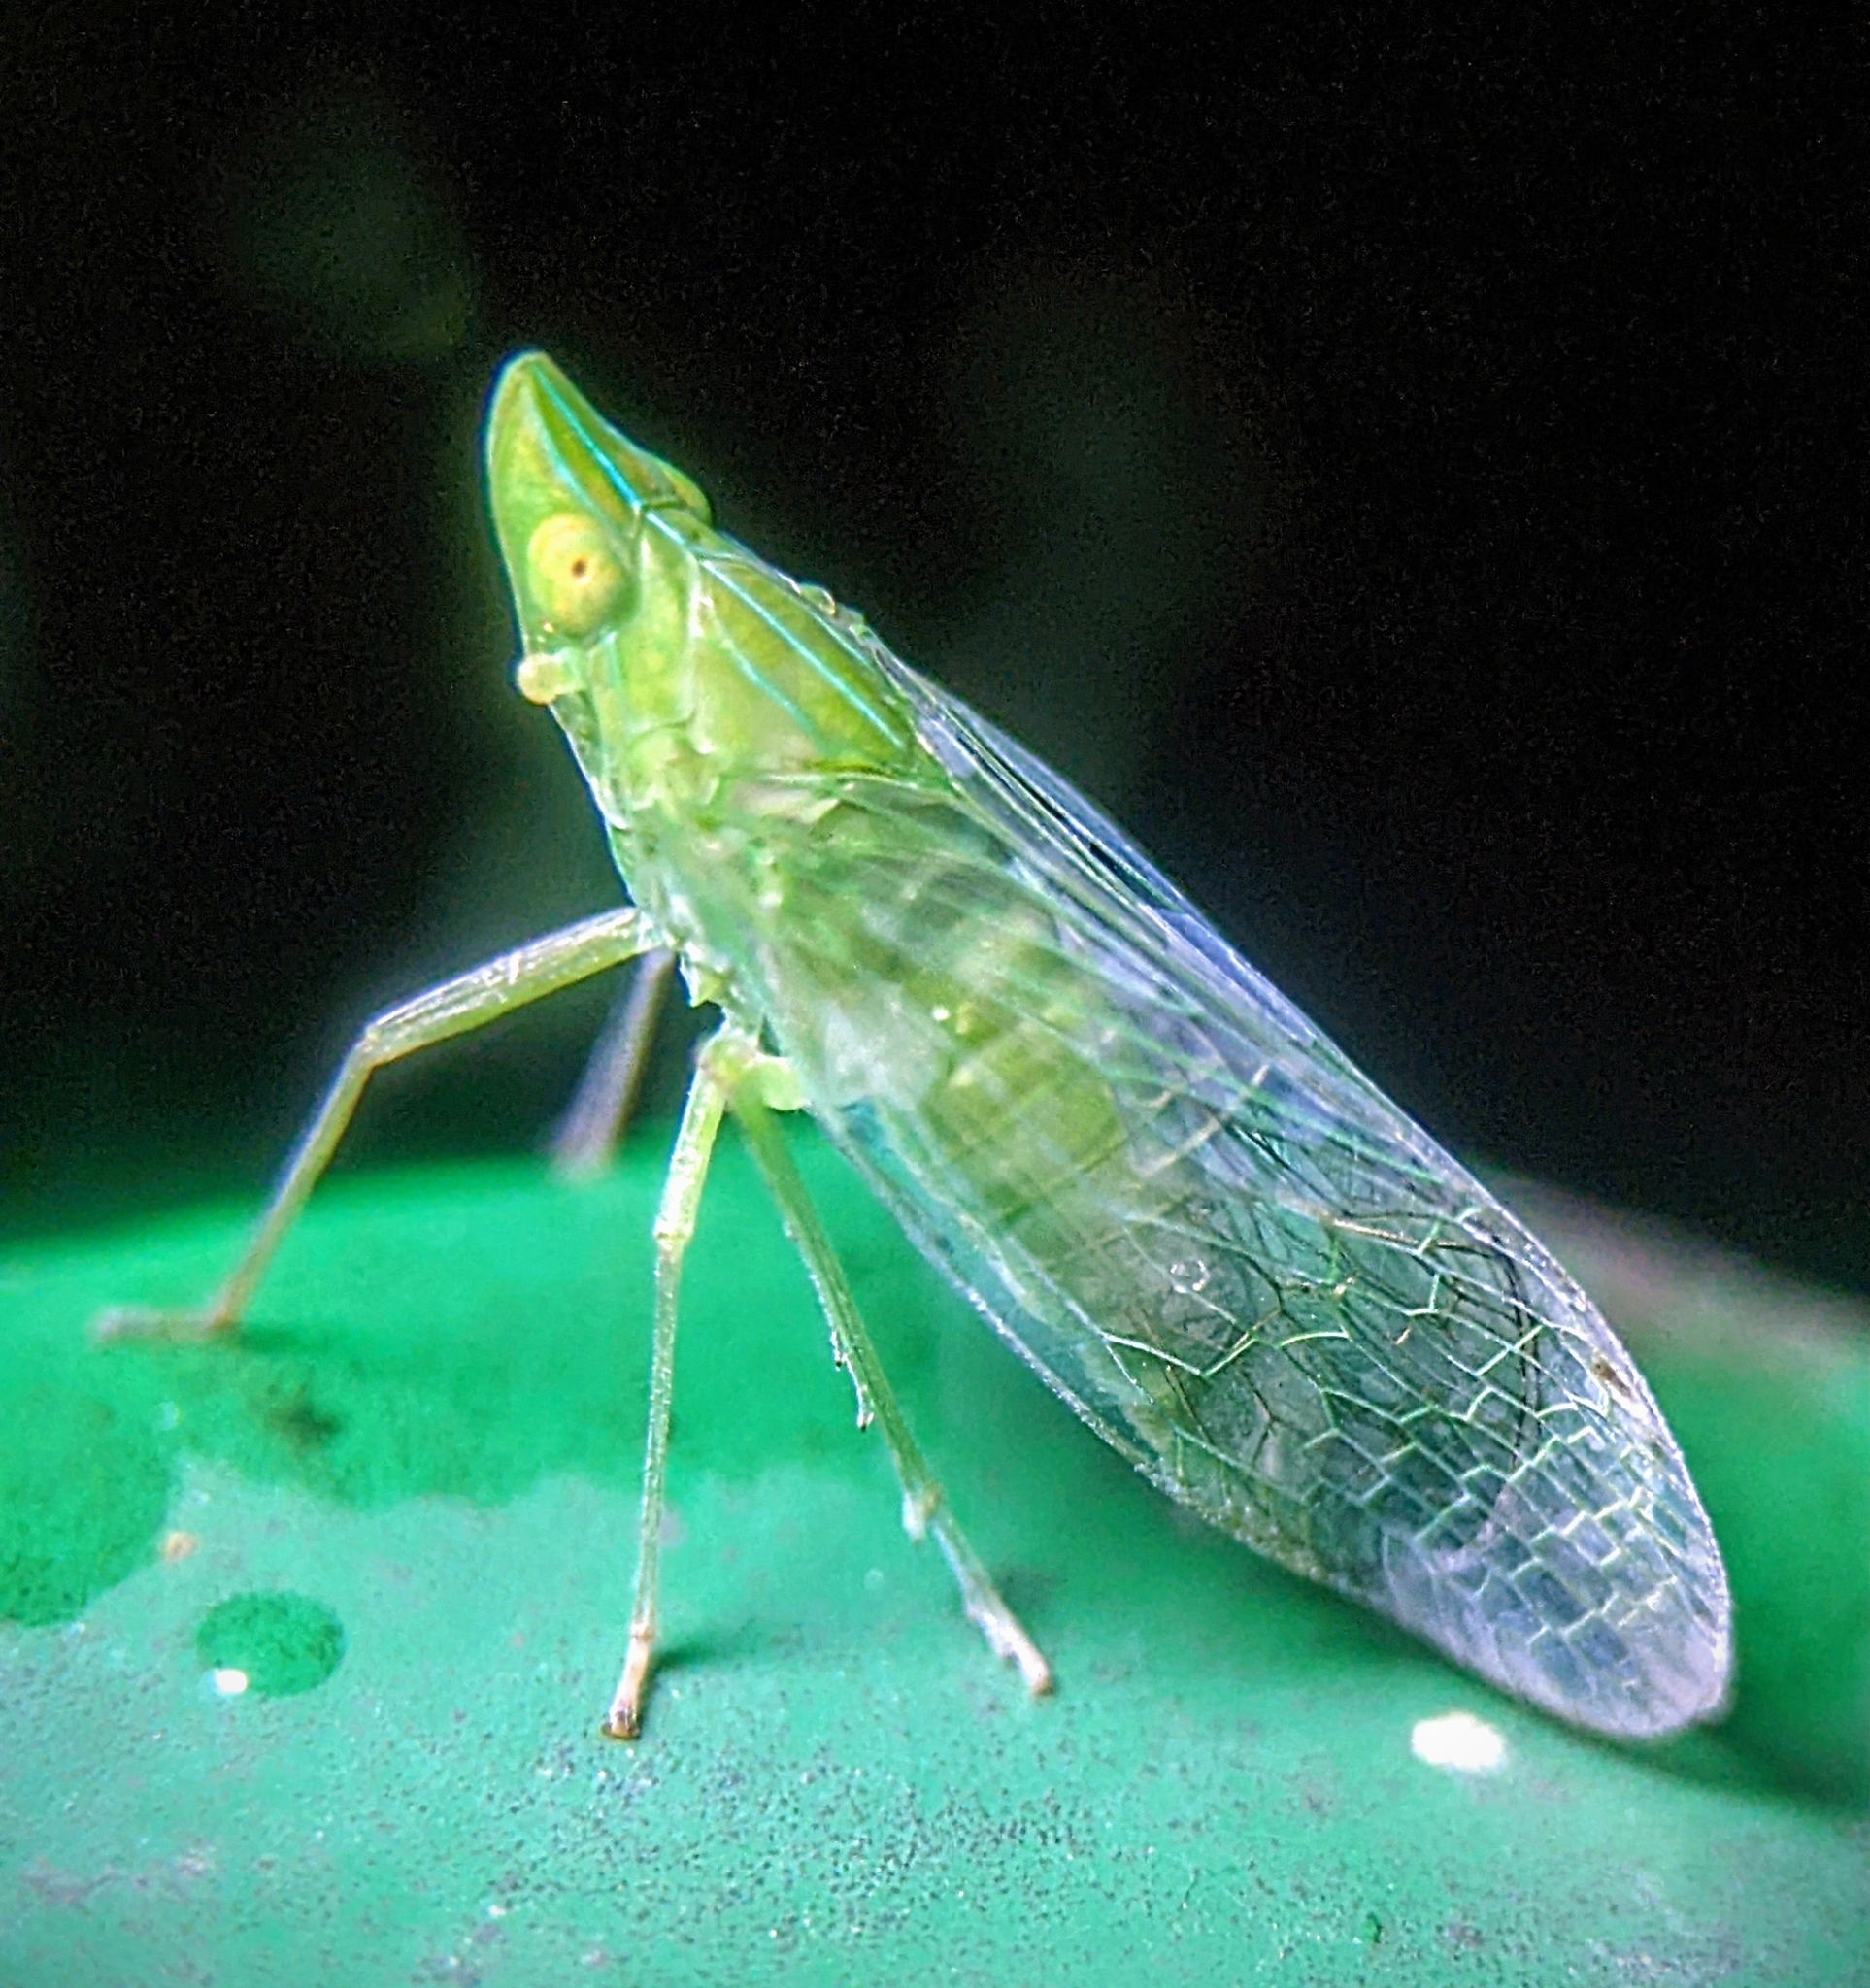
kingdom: Animalia
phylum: Arthropoda
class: Insecta
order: Hemiptera
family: Dictyopharidae
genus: Dictyopharina
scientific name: Dictyopharina longicephala
